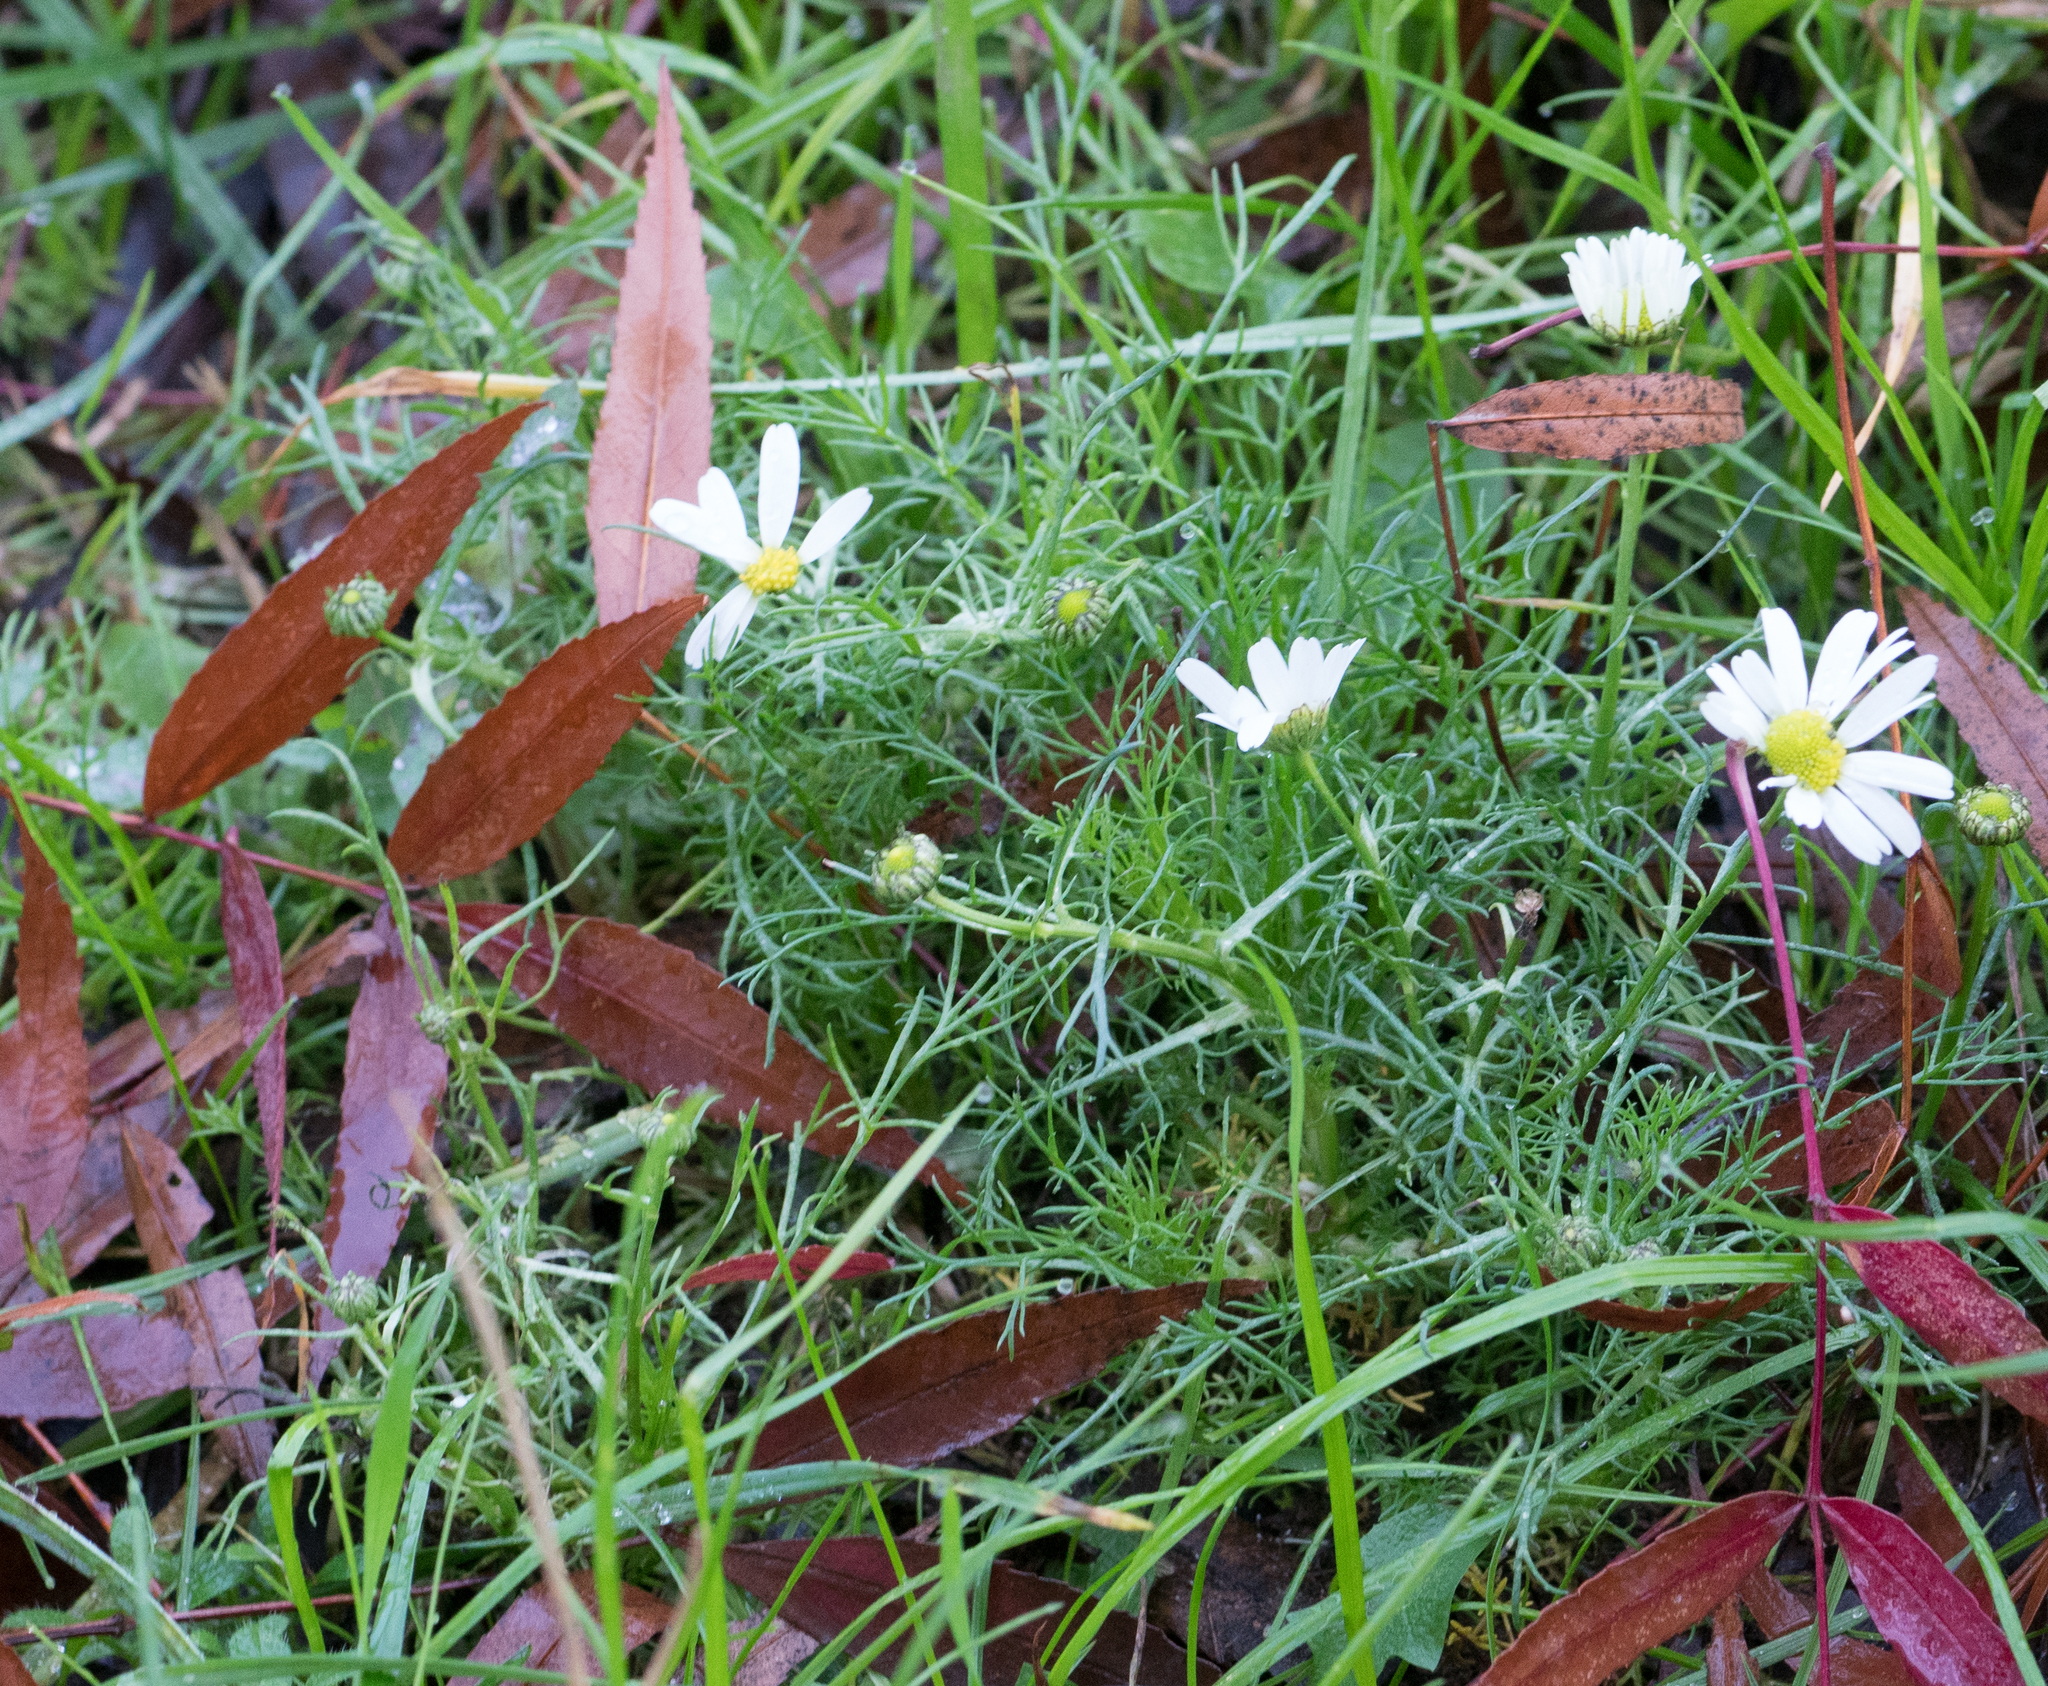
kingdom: Plantae
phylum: Tracheophyta
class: Magnoliopsida
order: Asterales
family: Asteraceae
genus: Tripleurospermum
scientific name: Tripleurospermum inodorum
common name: Scentless mayweed
